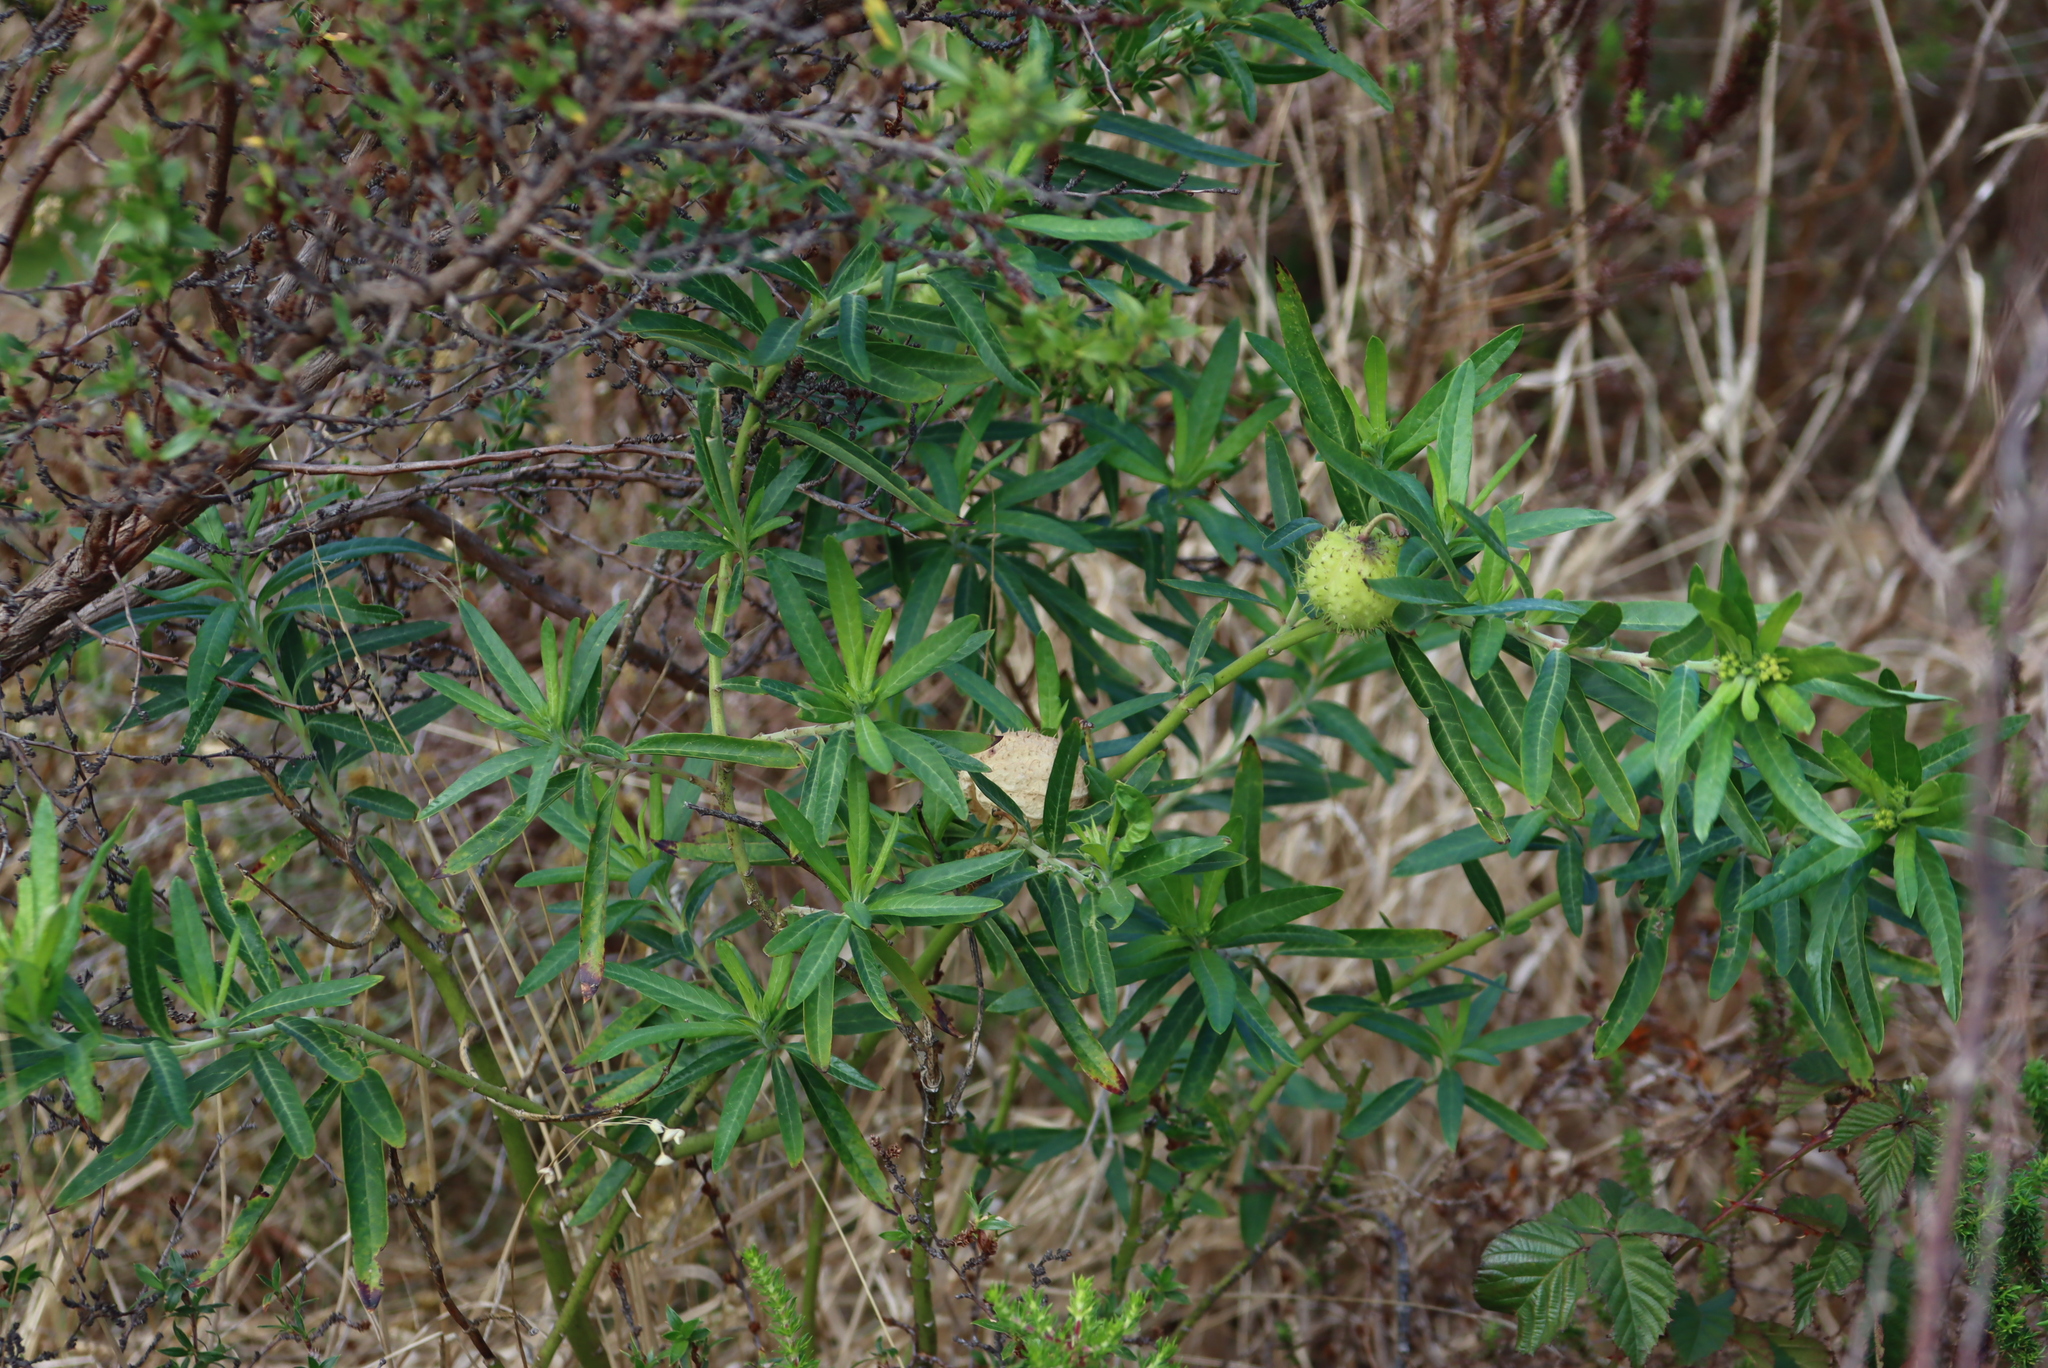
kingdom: Plantae
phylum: Tracheophyta
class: Magnoliopsida
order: Gentianales
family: Apocynaceae
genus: Gomphocarpus
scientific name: Gomphocarpus physocarpus
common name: Balloon cotton bush
